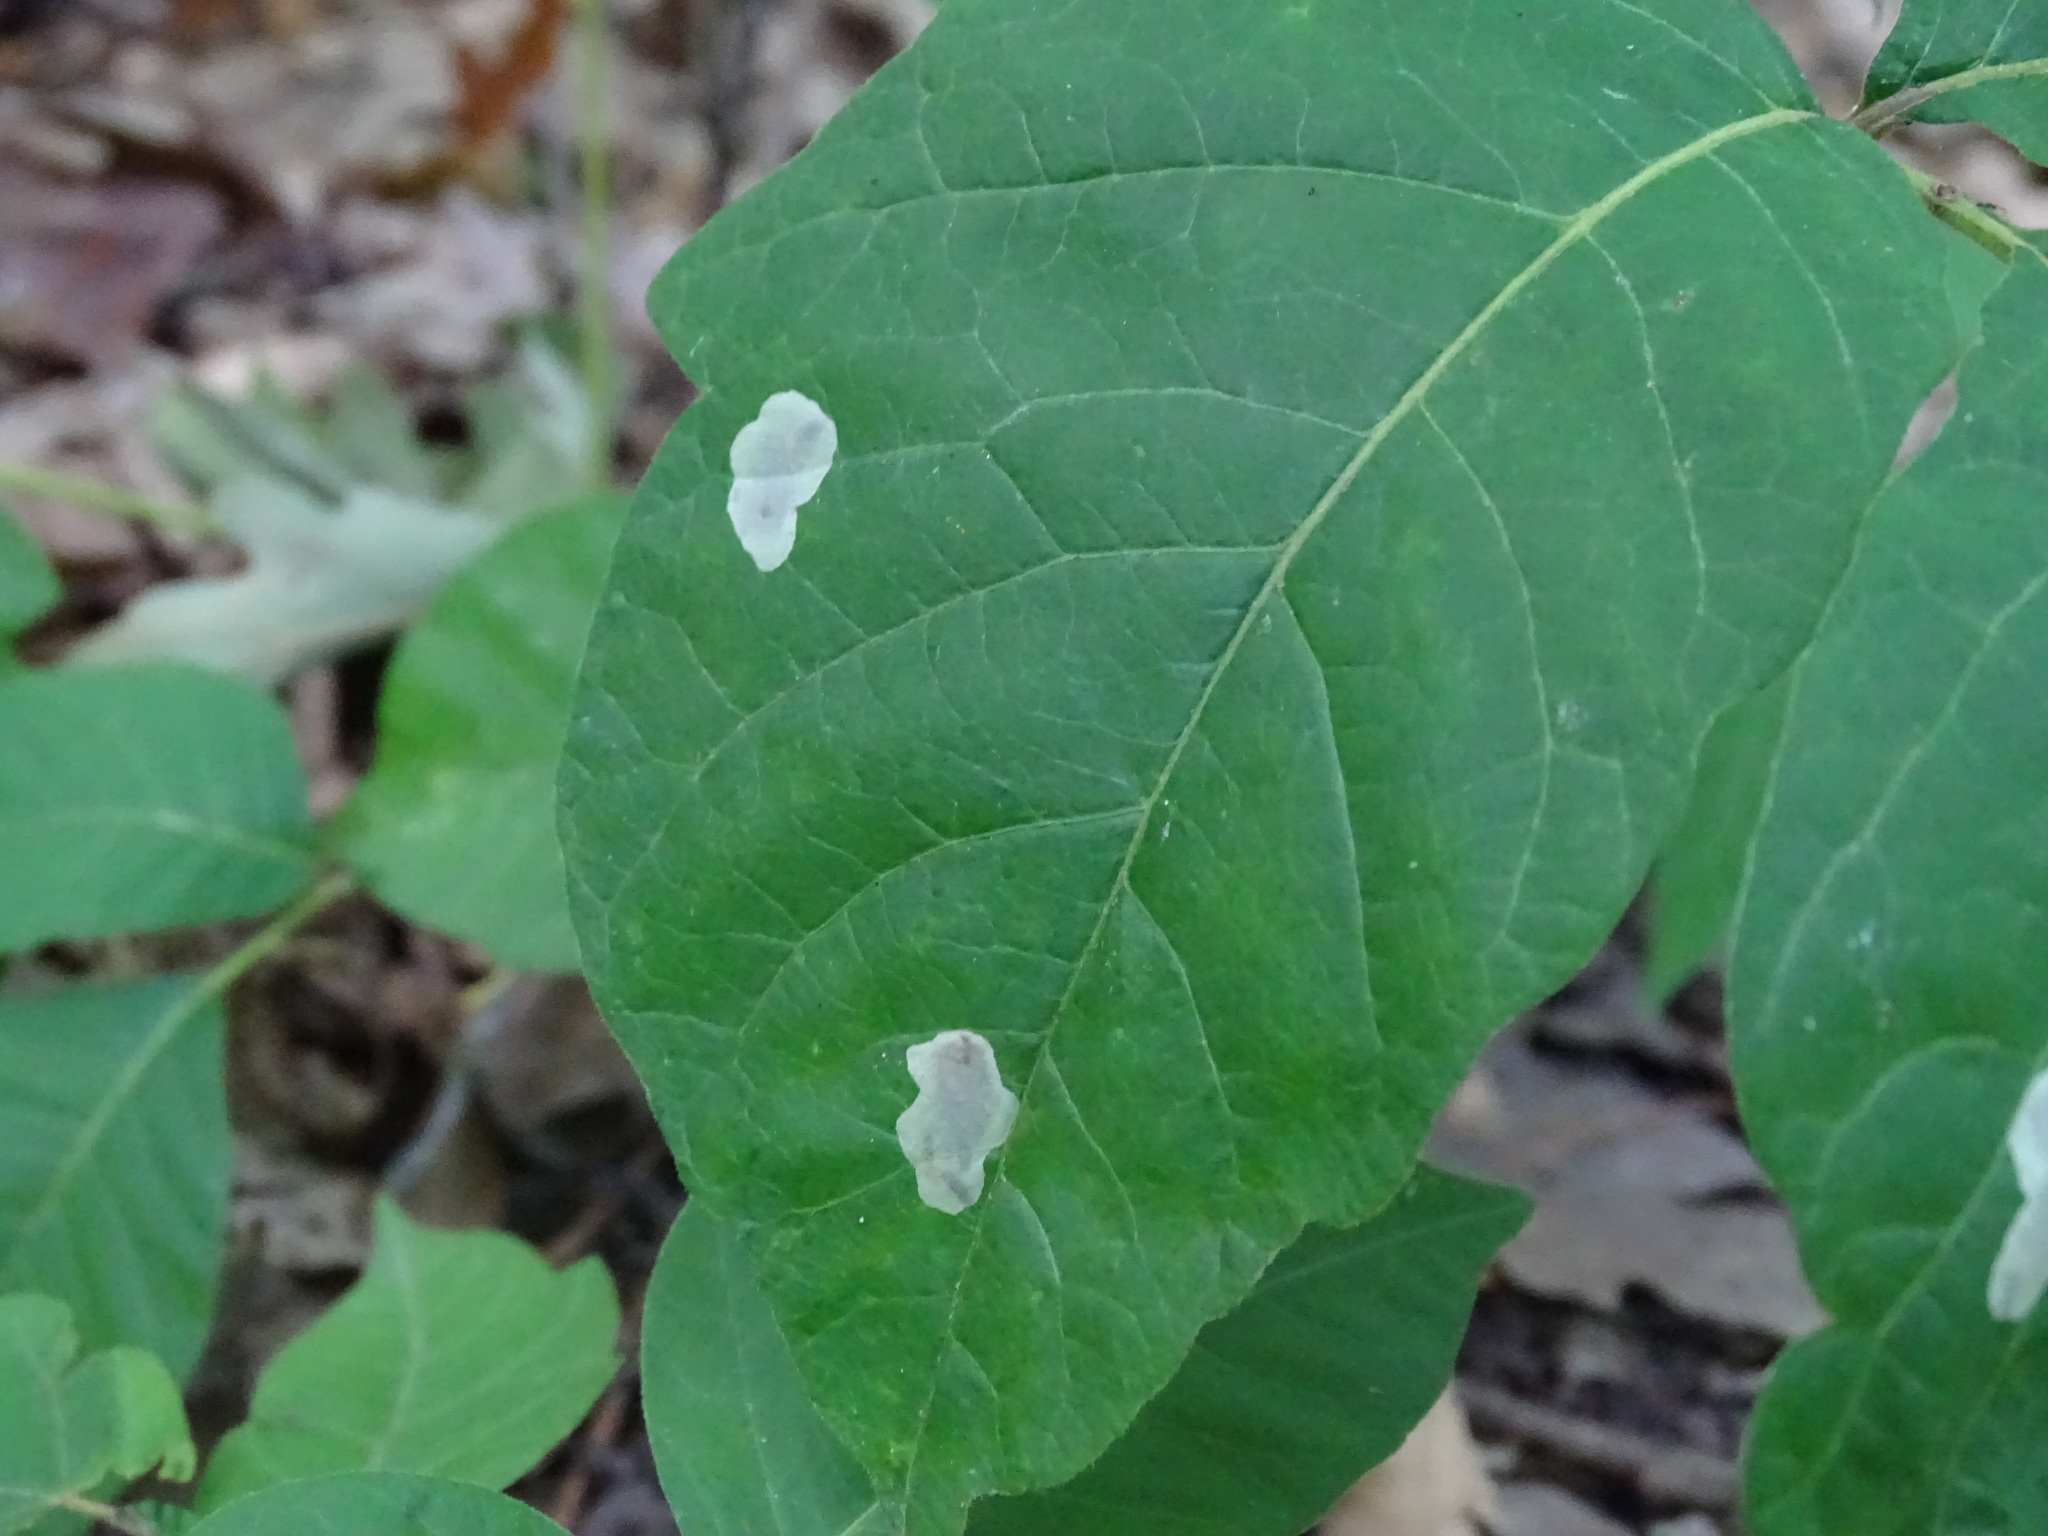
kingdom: Animalia
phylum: Arthropoda
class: Insecta
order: Lepidoptera
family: Gracillariidae
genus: Cameraria
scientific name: Cameraria guttifinitella
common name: Poison ivy leaf-miner moth
